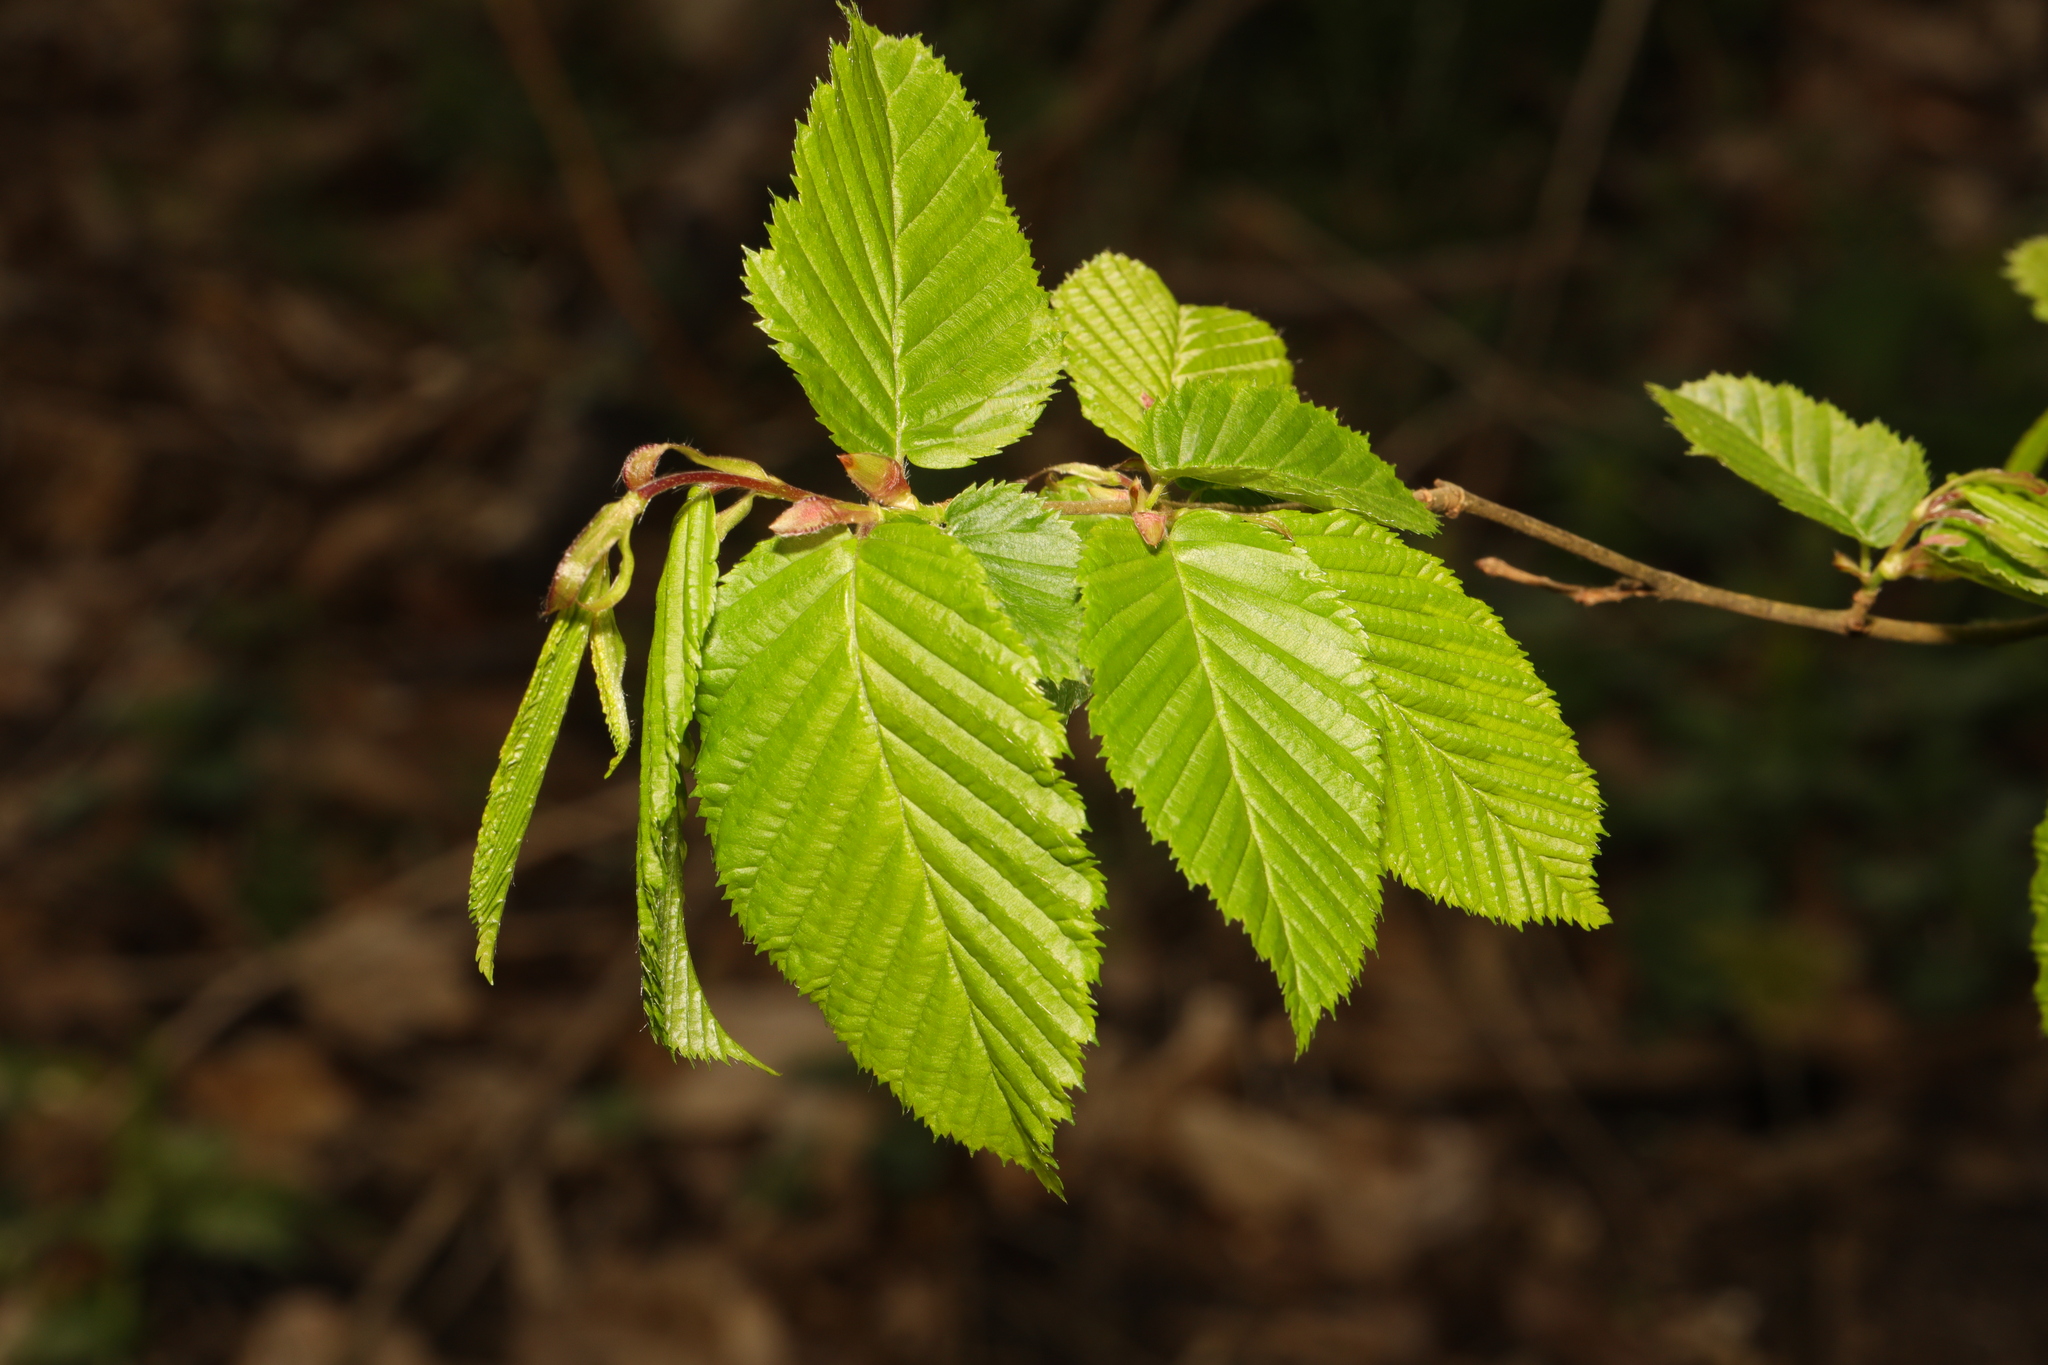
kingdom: Plantae
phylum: Tracheophyta
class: Magnoliopsida
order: Fagales
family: Betulaceae
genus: Carpinus
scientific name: Carpinus betulus
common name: Hornbeam
